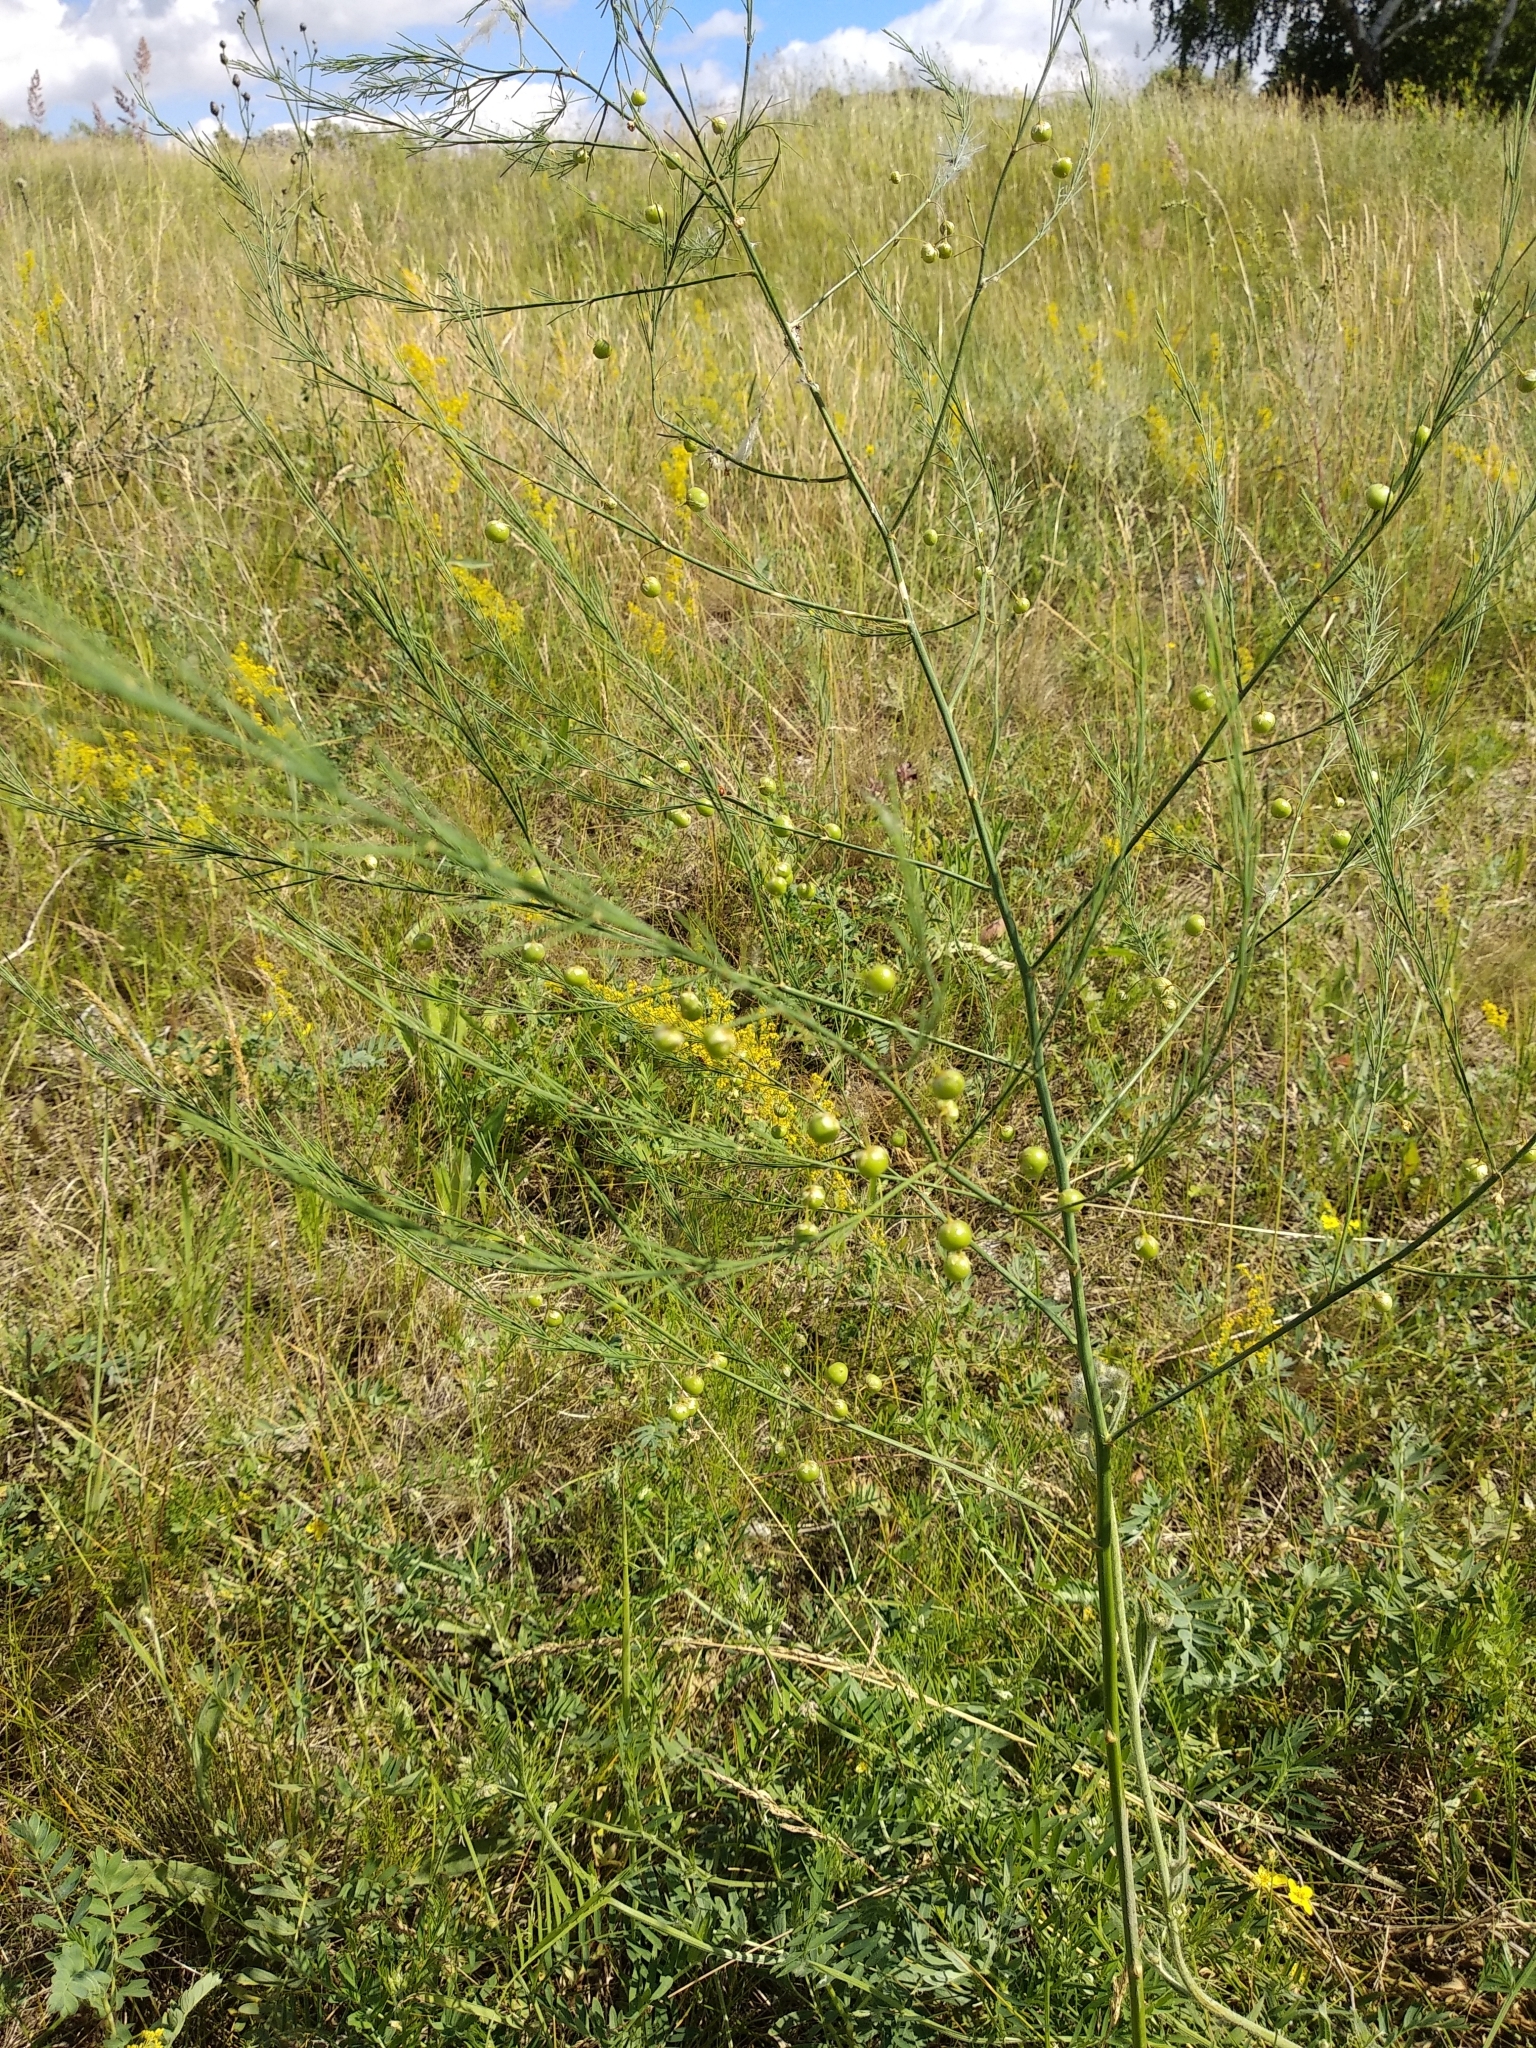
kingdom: Plantae
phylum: Tracheophyta
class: Liliopsida
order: Asparagales
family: Asparagaceae
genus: Asparagus
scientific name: Asparagus officinalis
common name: Garden asparagus
